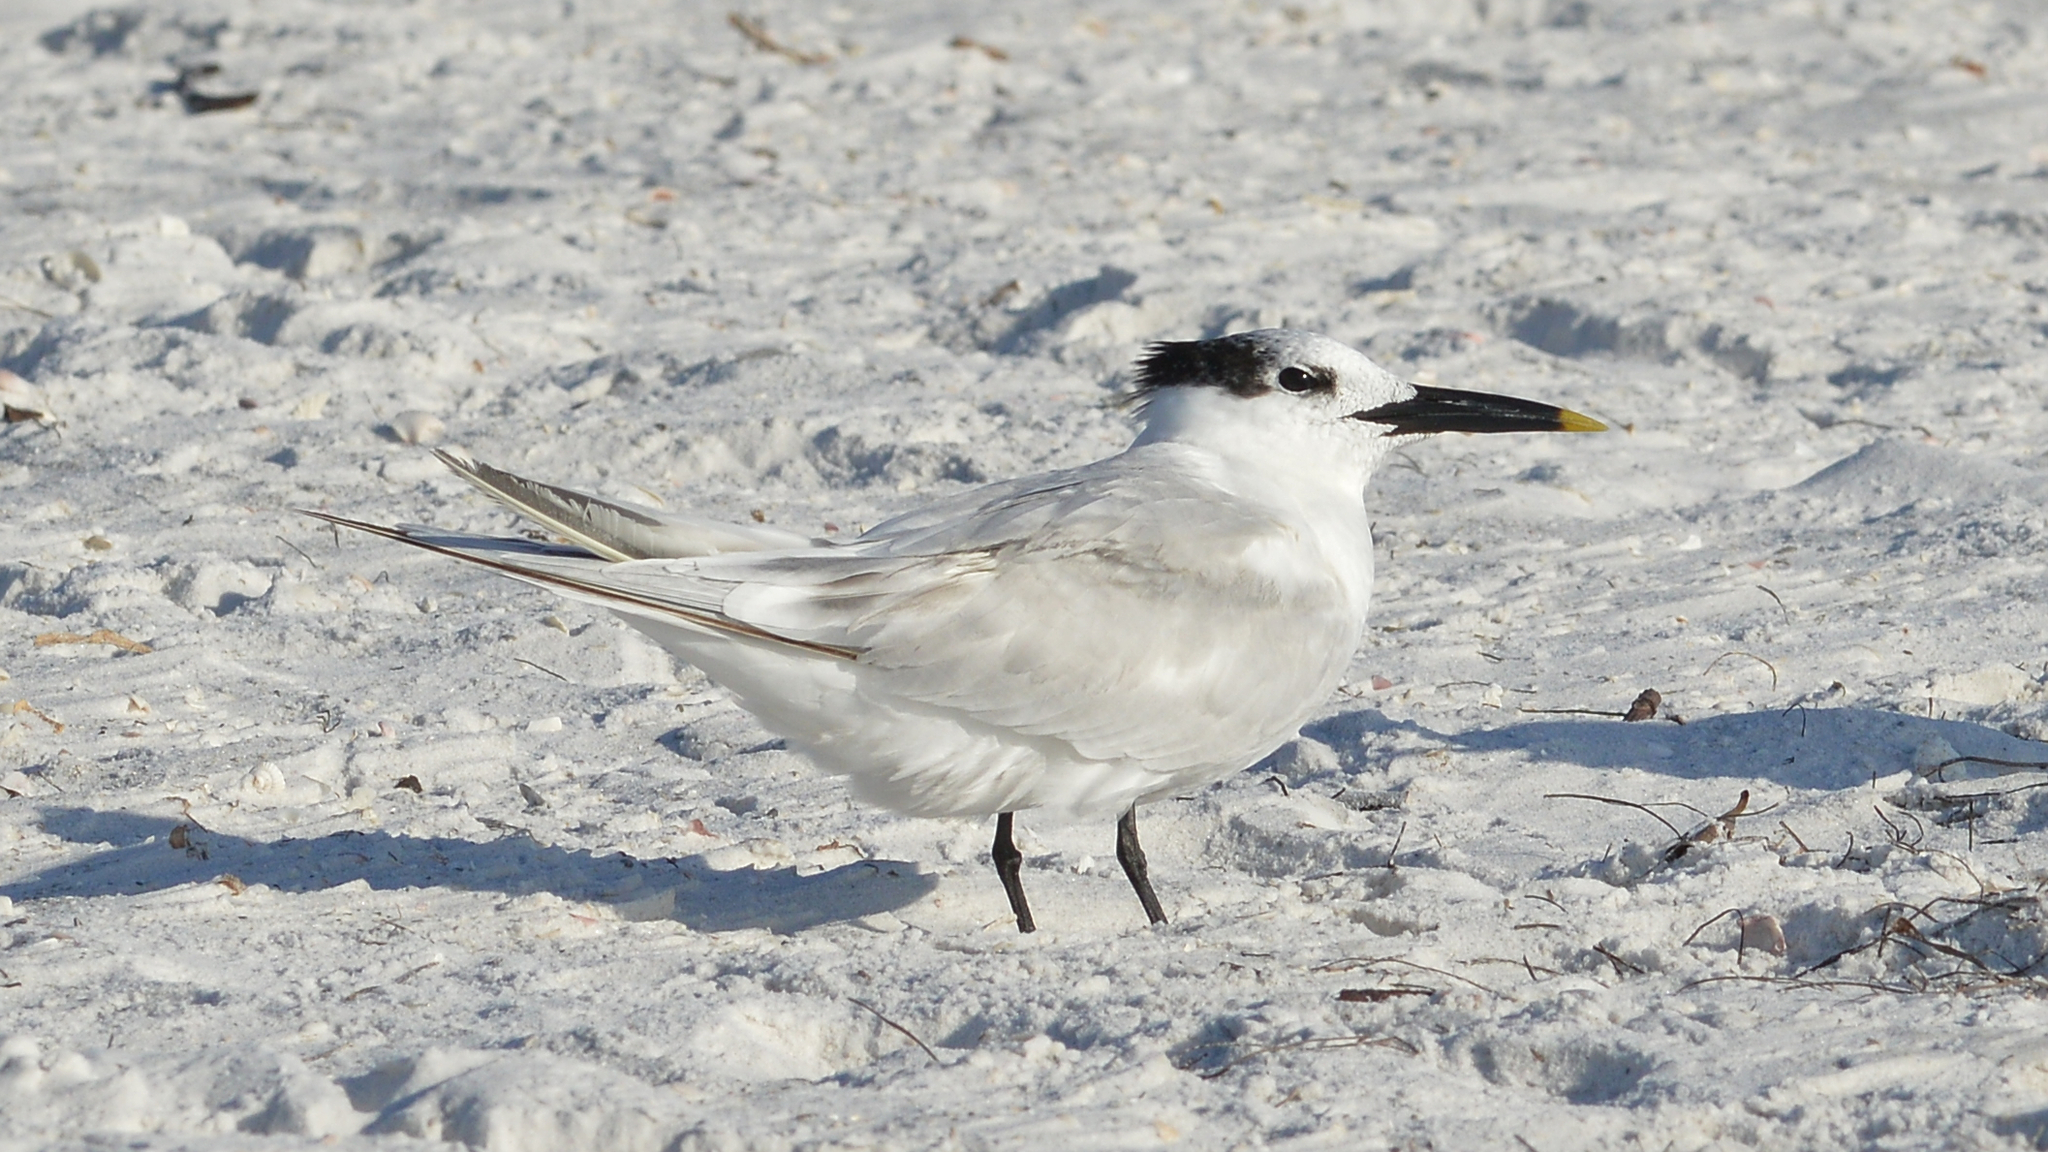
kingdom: Animalia
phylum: Chordata
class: Aves
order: Charadriiformes
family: Laridae
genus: Thalasseus
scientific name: Thalasseus sandvicensis
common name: Sandwich tern
